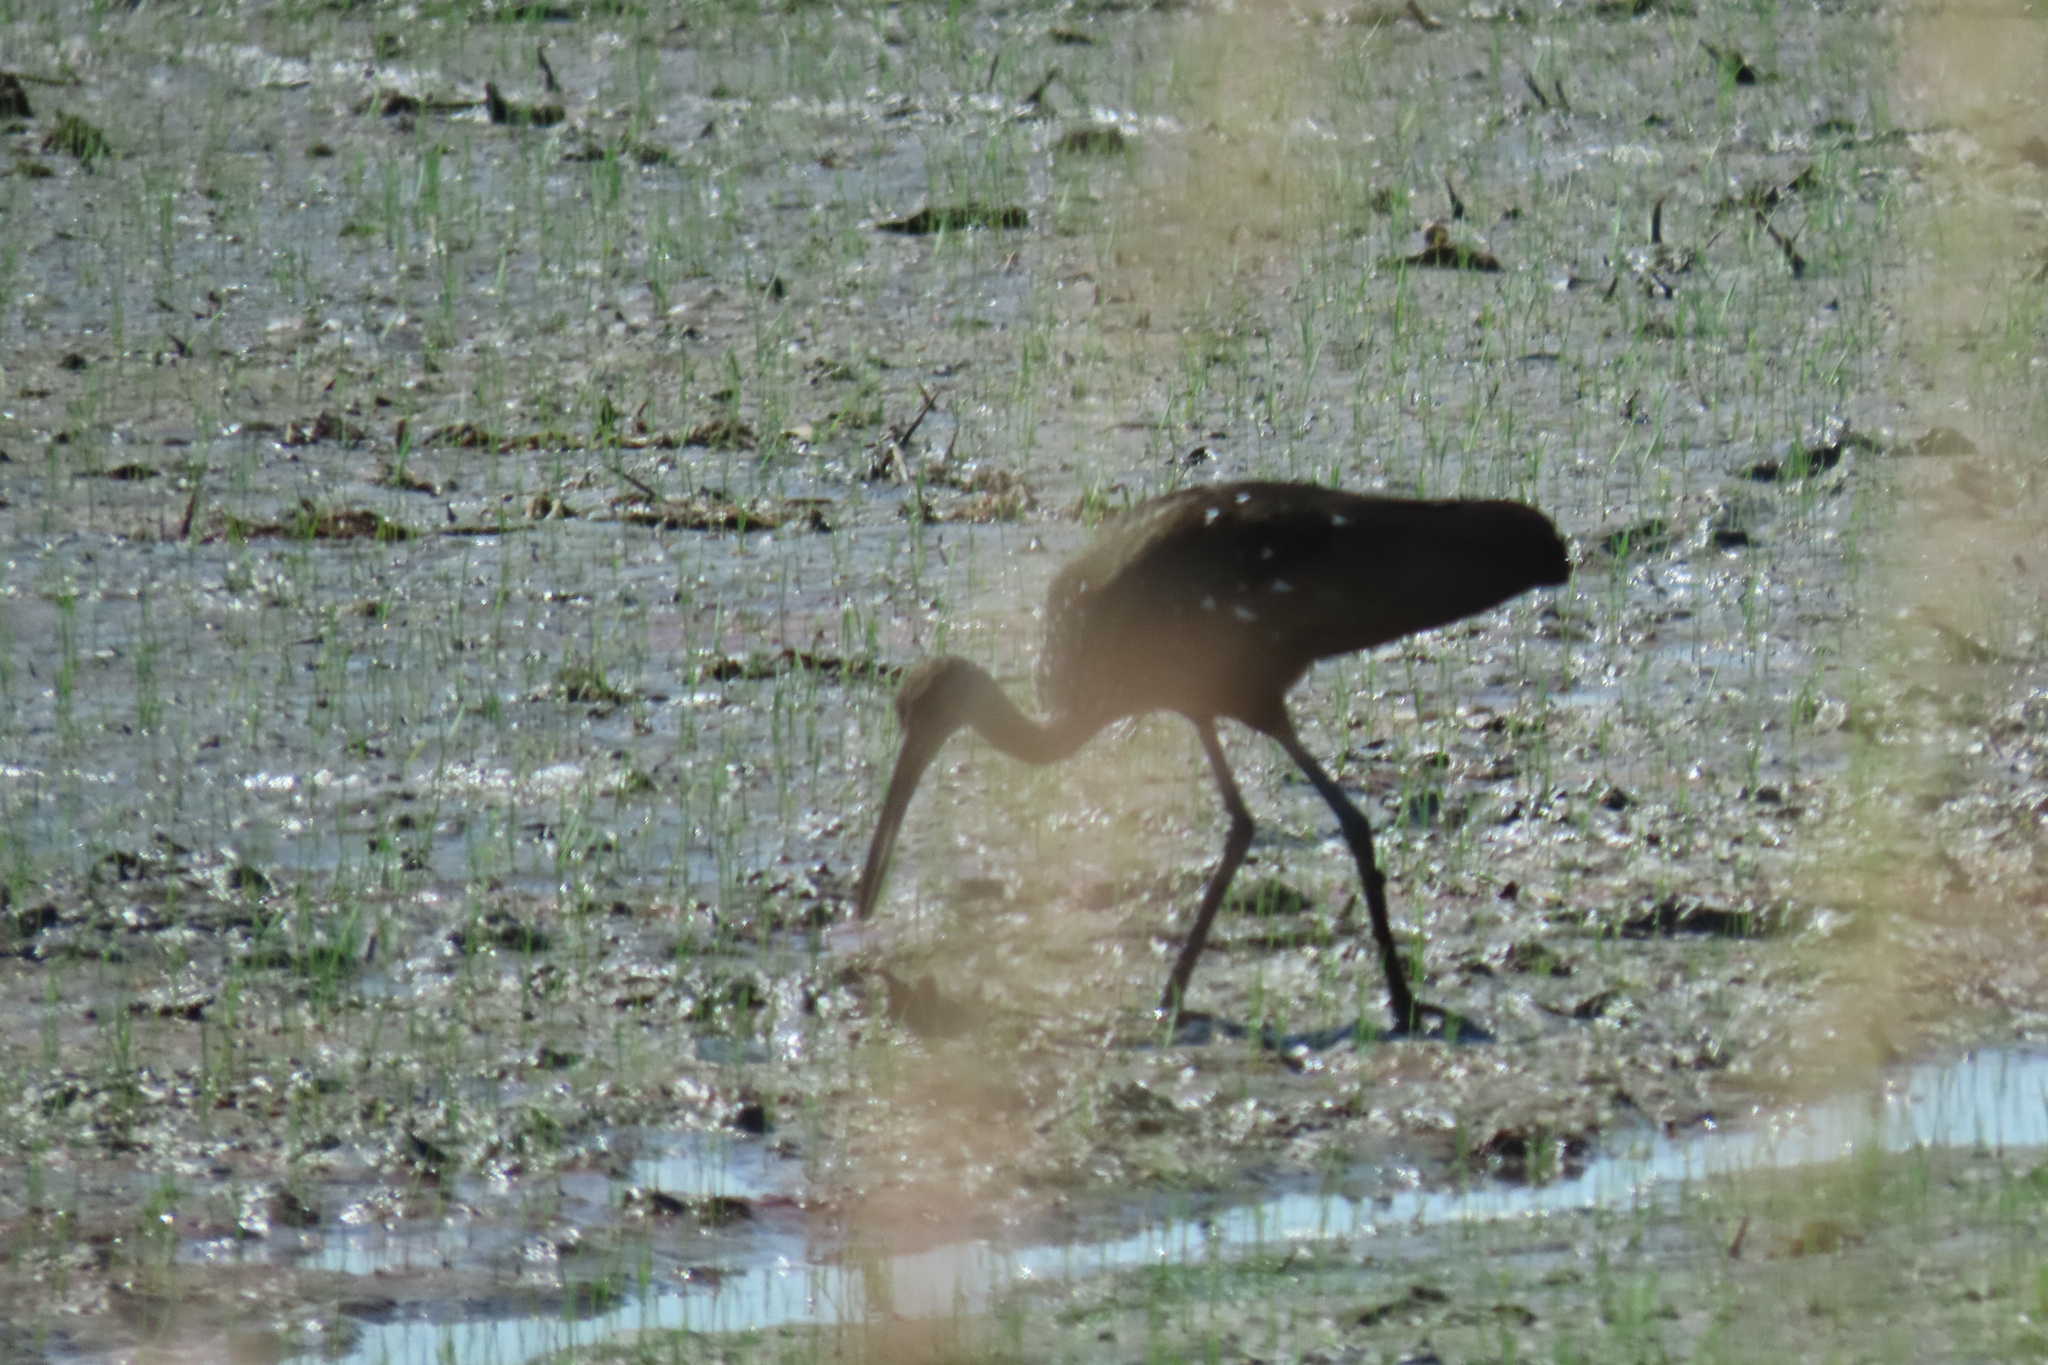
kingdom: Animalia
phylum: Chordata
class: Aves
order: Gruiformes
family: Aramidae
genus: Aramus
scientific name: Aramus guarauna
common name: Limpkin
